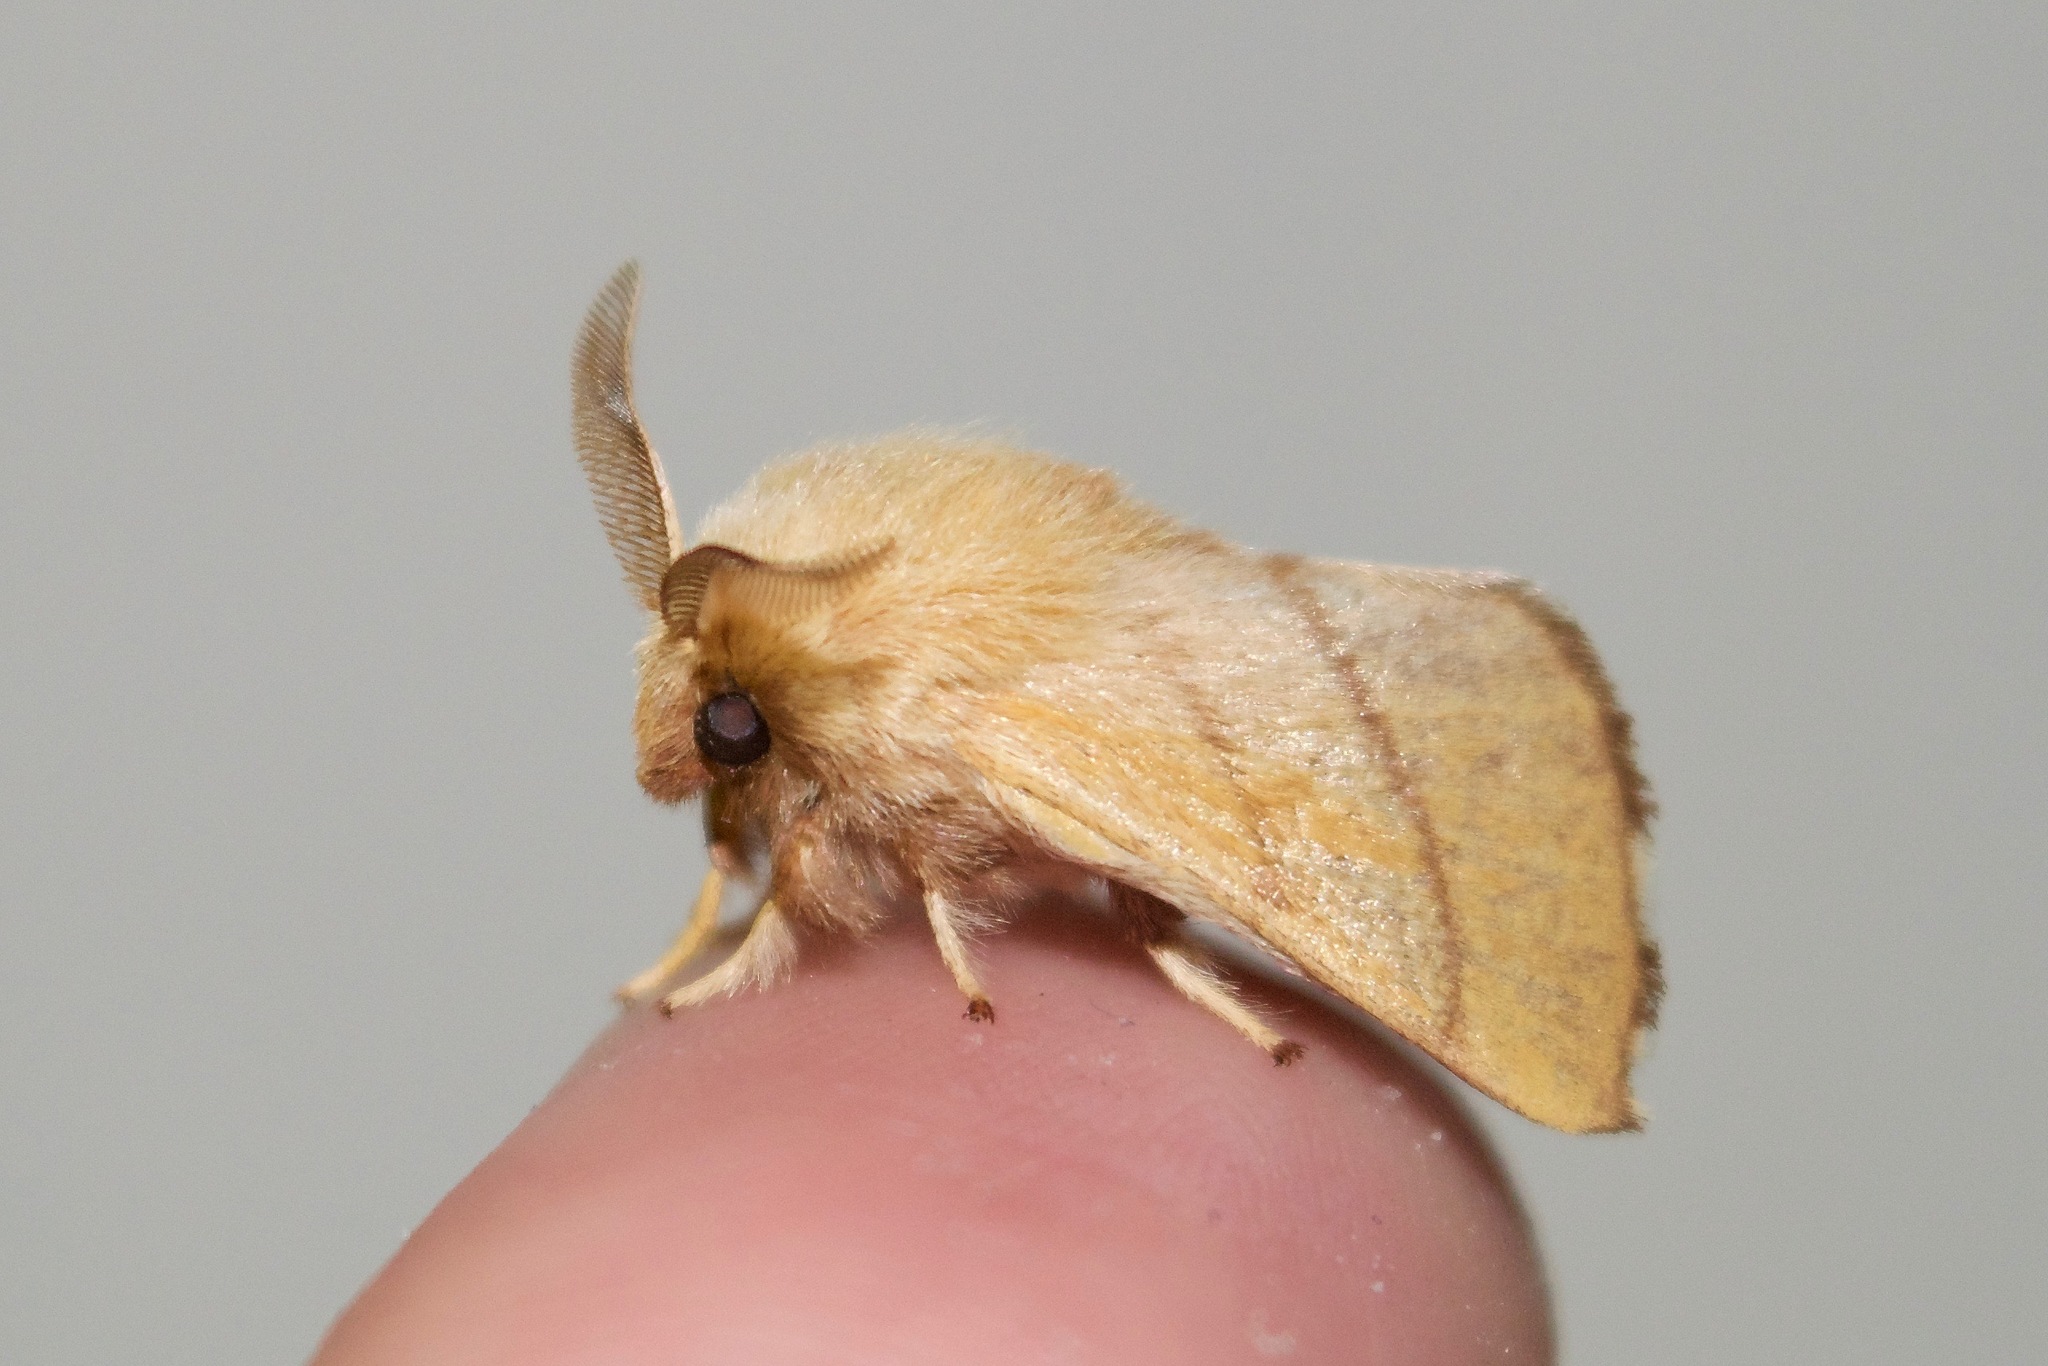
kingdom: Animalia
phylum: Arthropoda
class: Insecta
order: Lepidoptera
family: Lasiocampidae
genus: Malacosoma
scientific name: Malacosoma disstria
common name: Forest tent caterpillar
